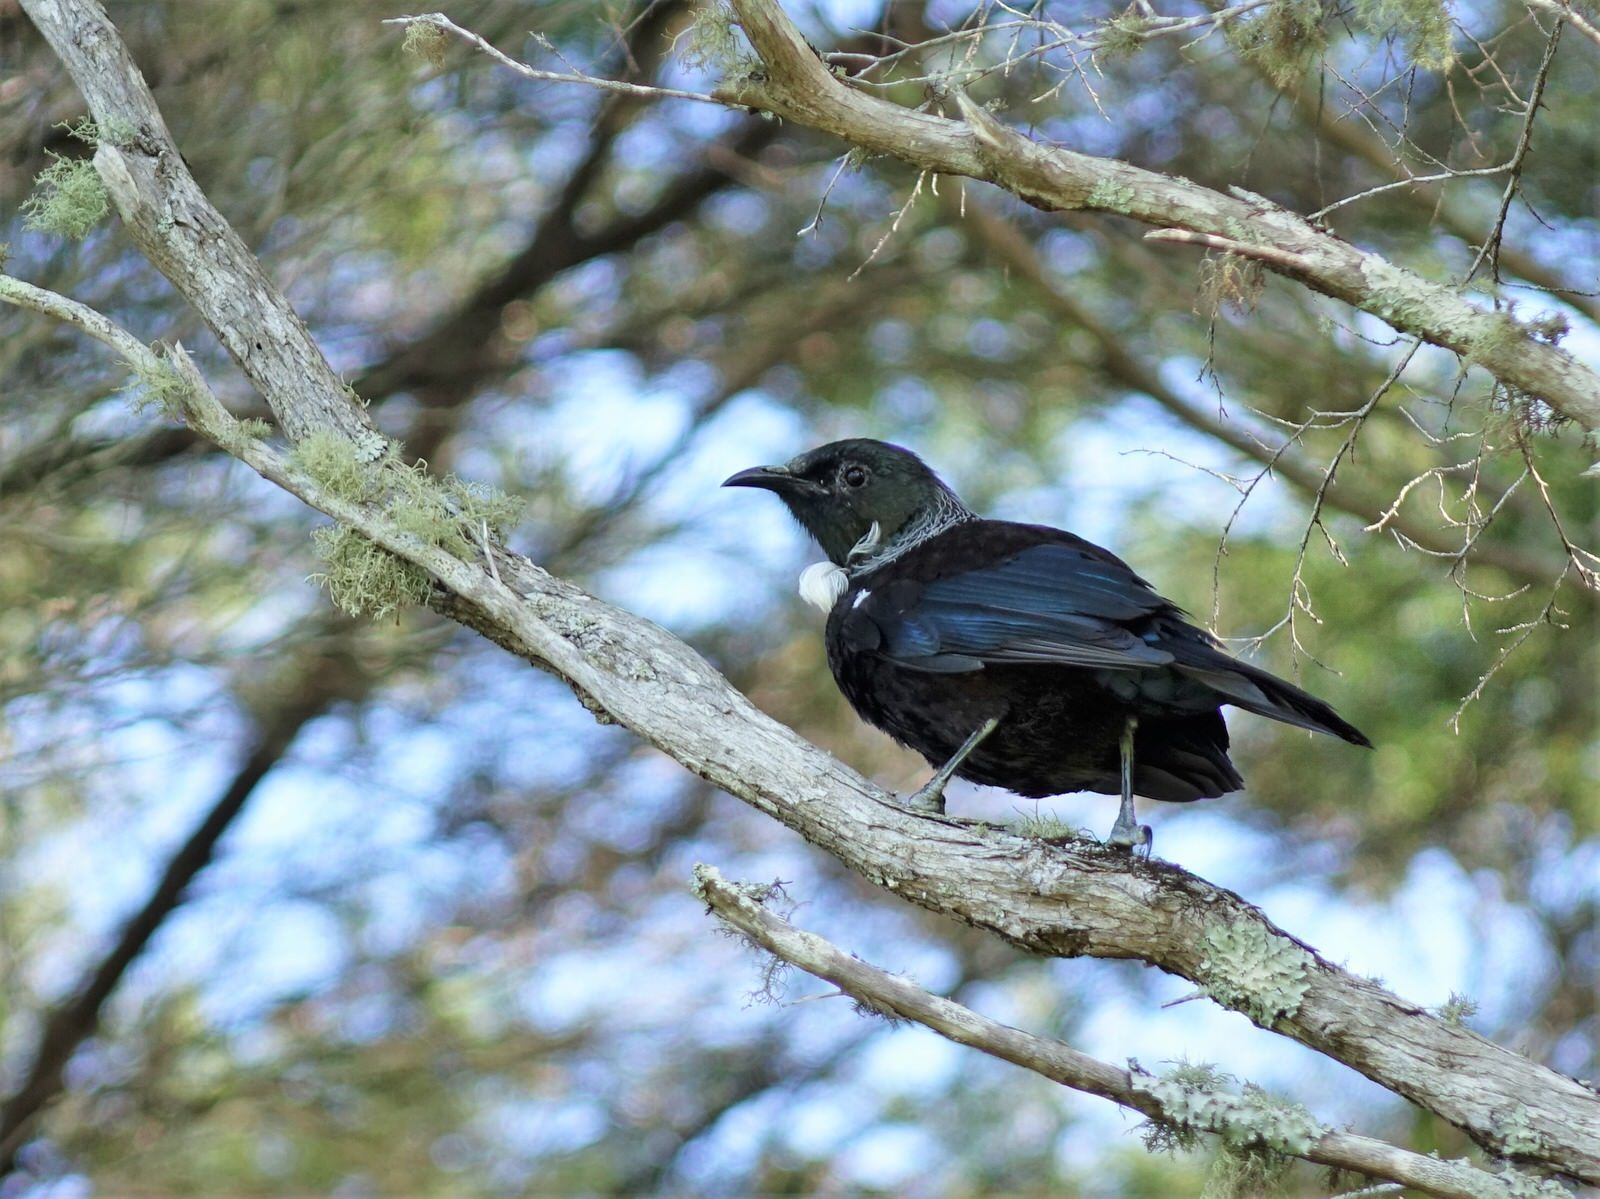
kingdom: Animalia
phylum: Chordata
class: Aves
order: Passeriformes
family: Meliphagidae
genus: Prosthemadera
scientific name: Prosthemadera novaeseelandiae
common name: Tui
